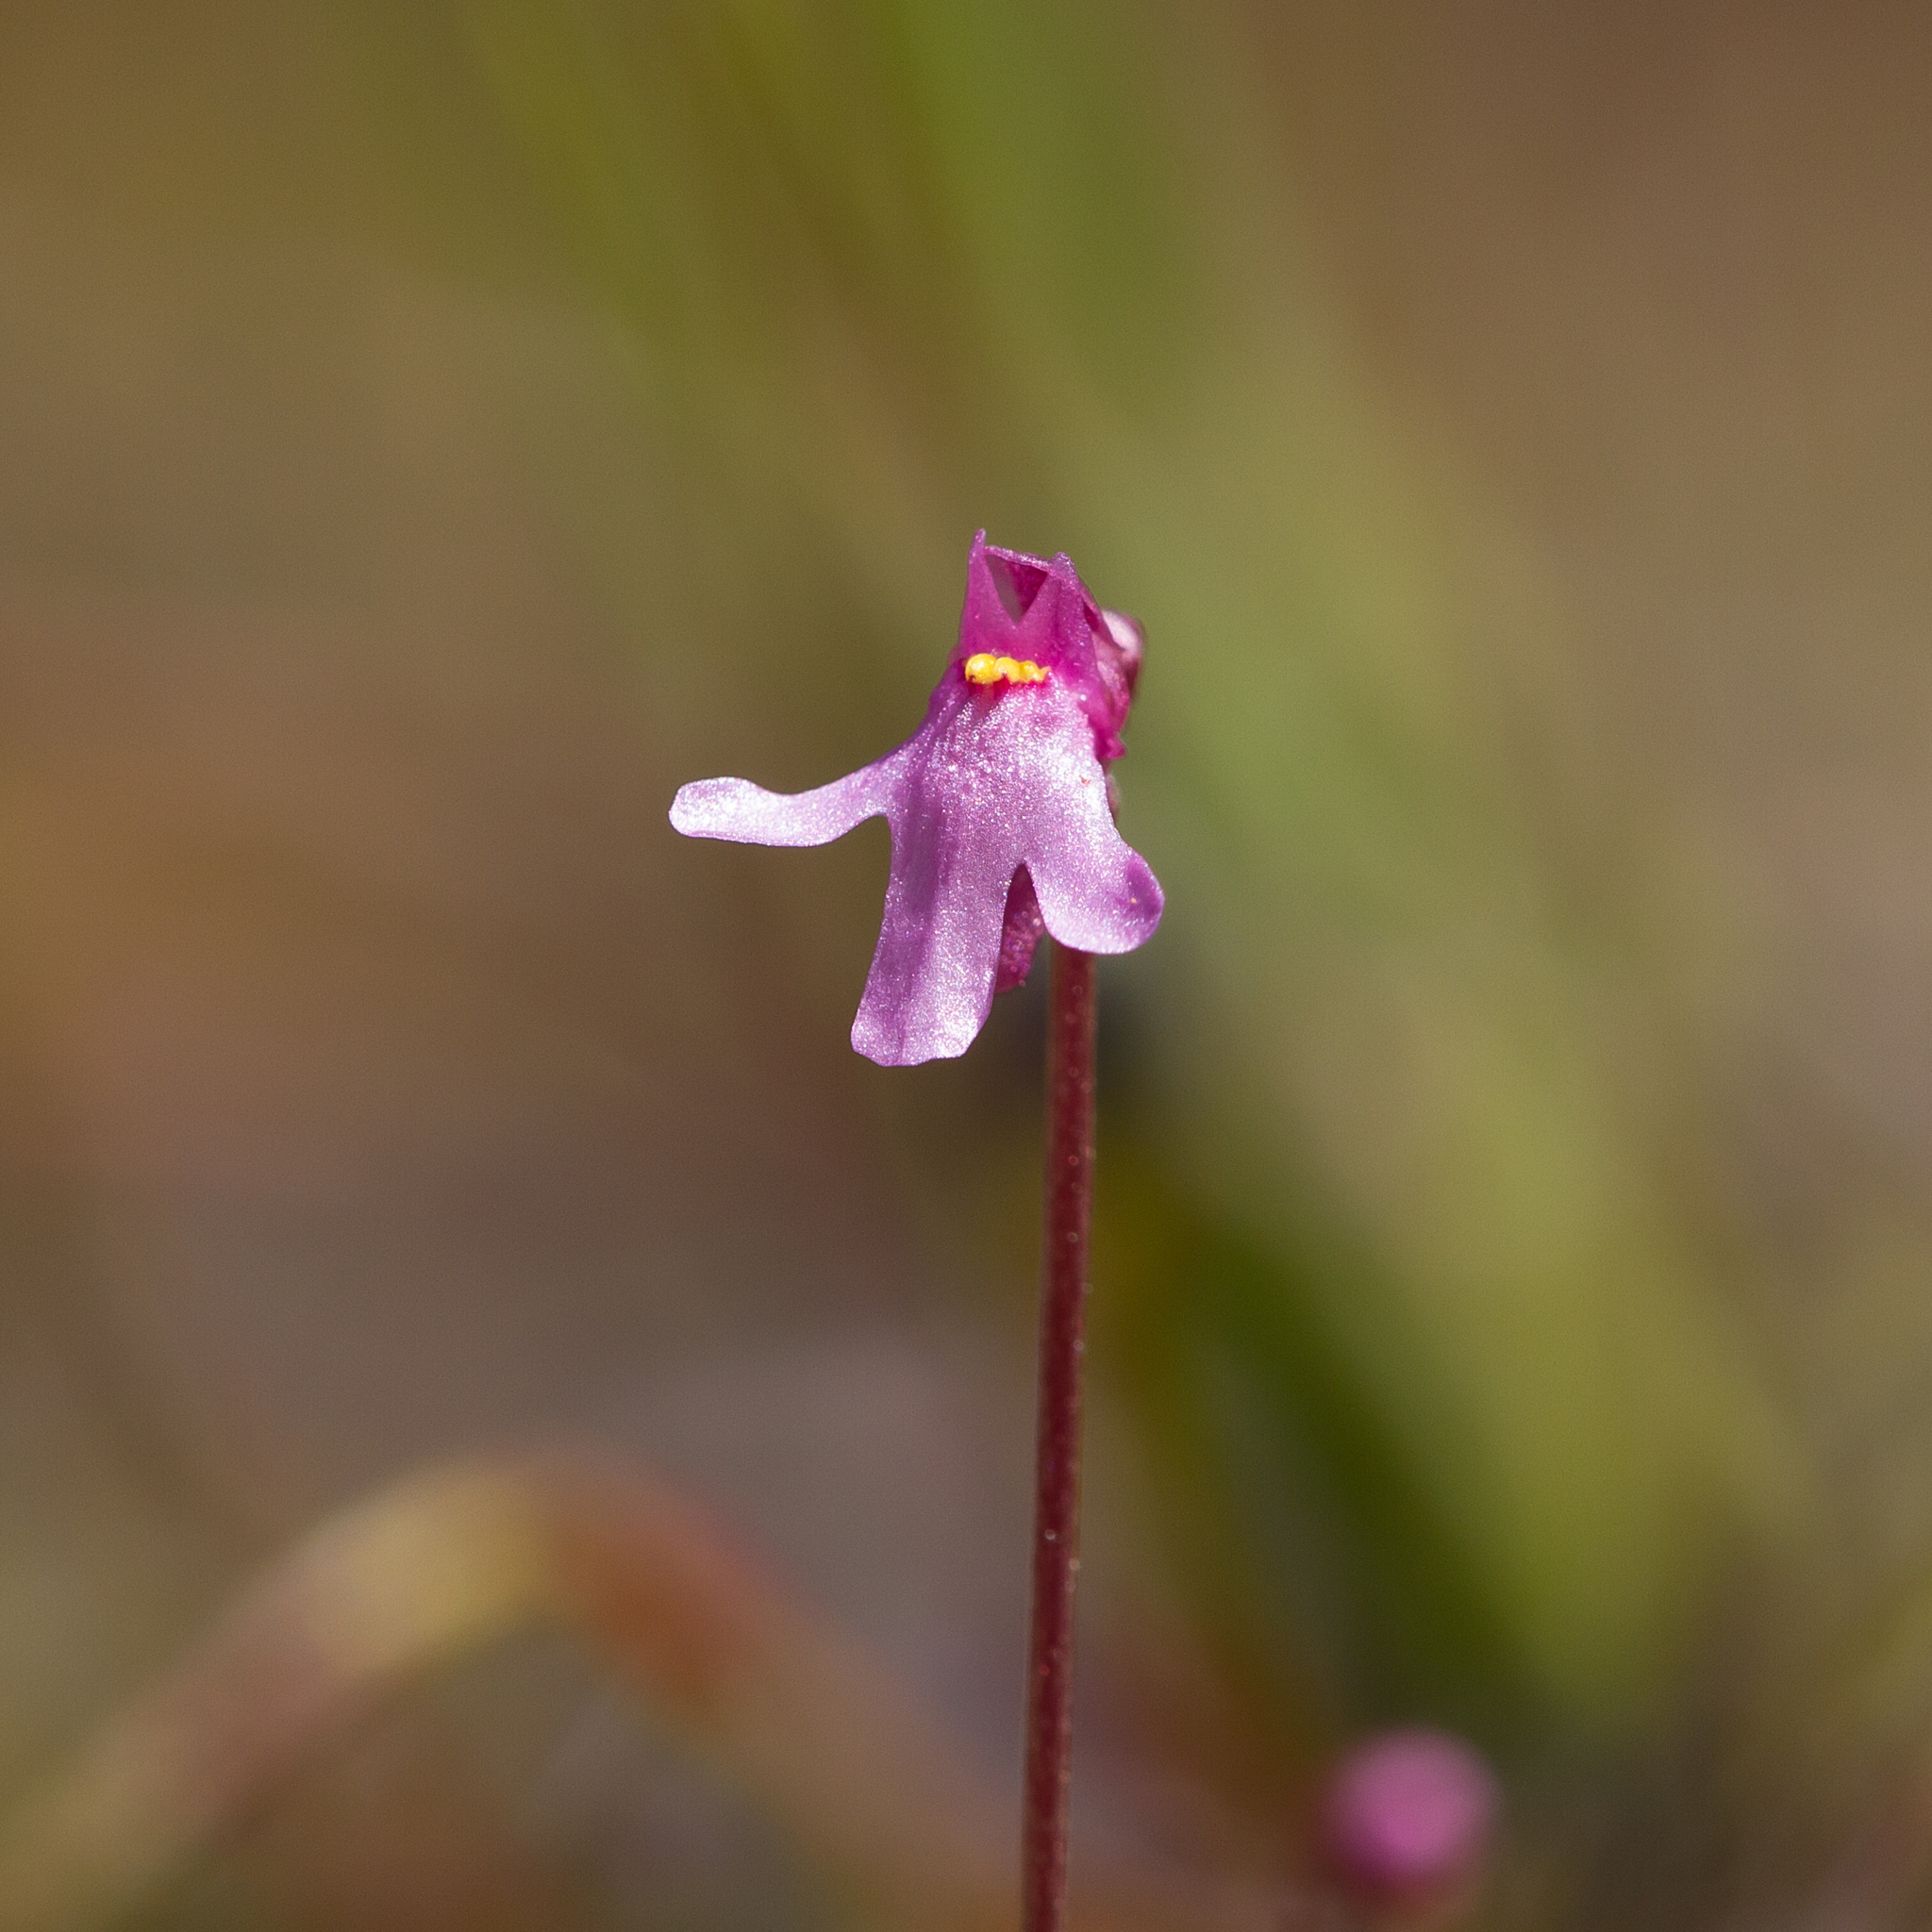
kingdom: Plantae
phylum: Tracheophyta
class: Magnoliopsida
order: Lamiales
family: Lentibulariaceae
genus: Utricularia
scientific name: Utricularia tenella
